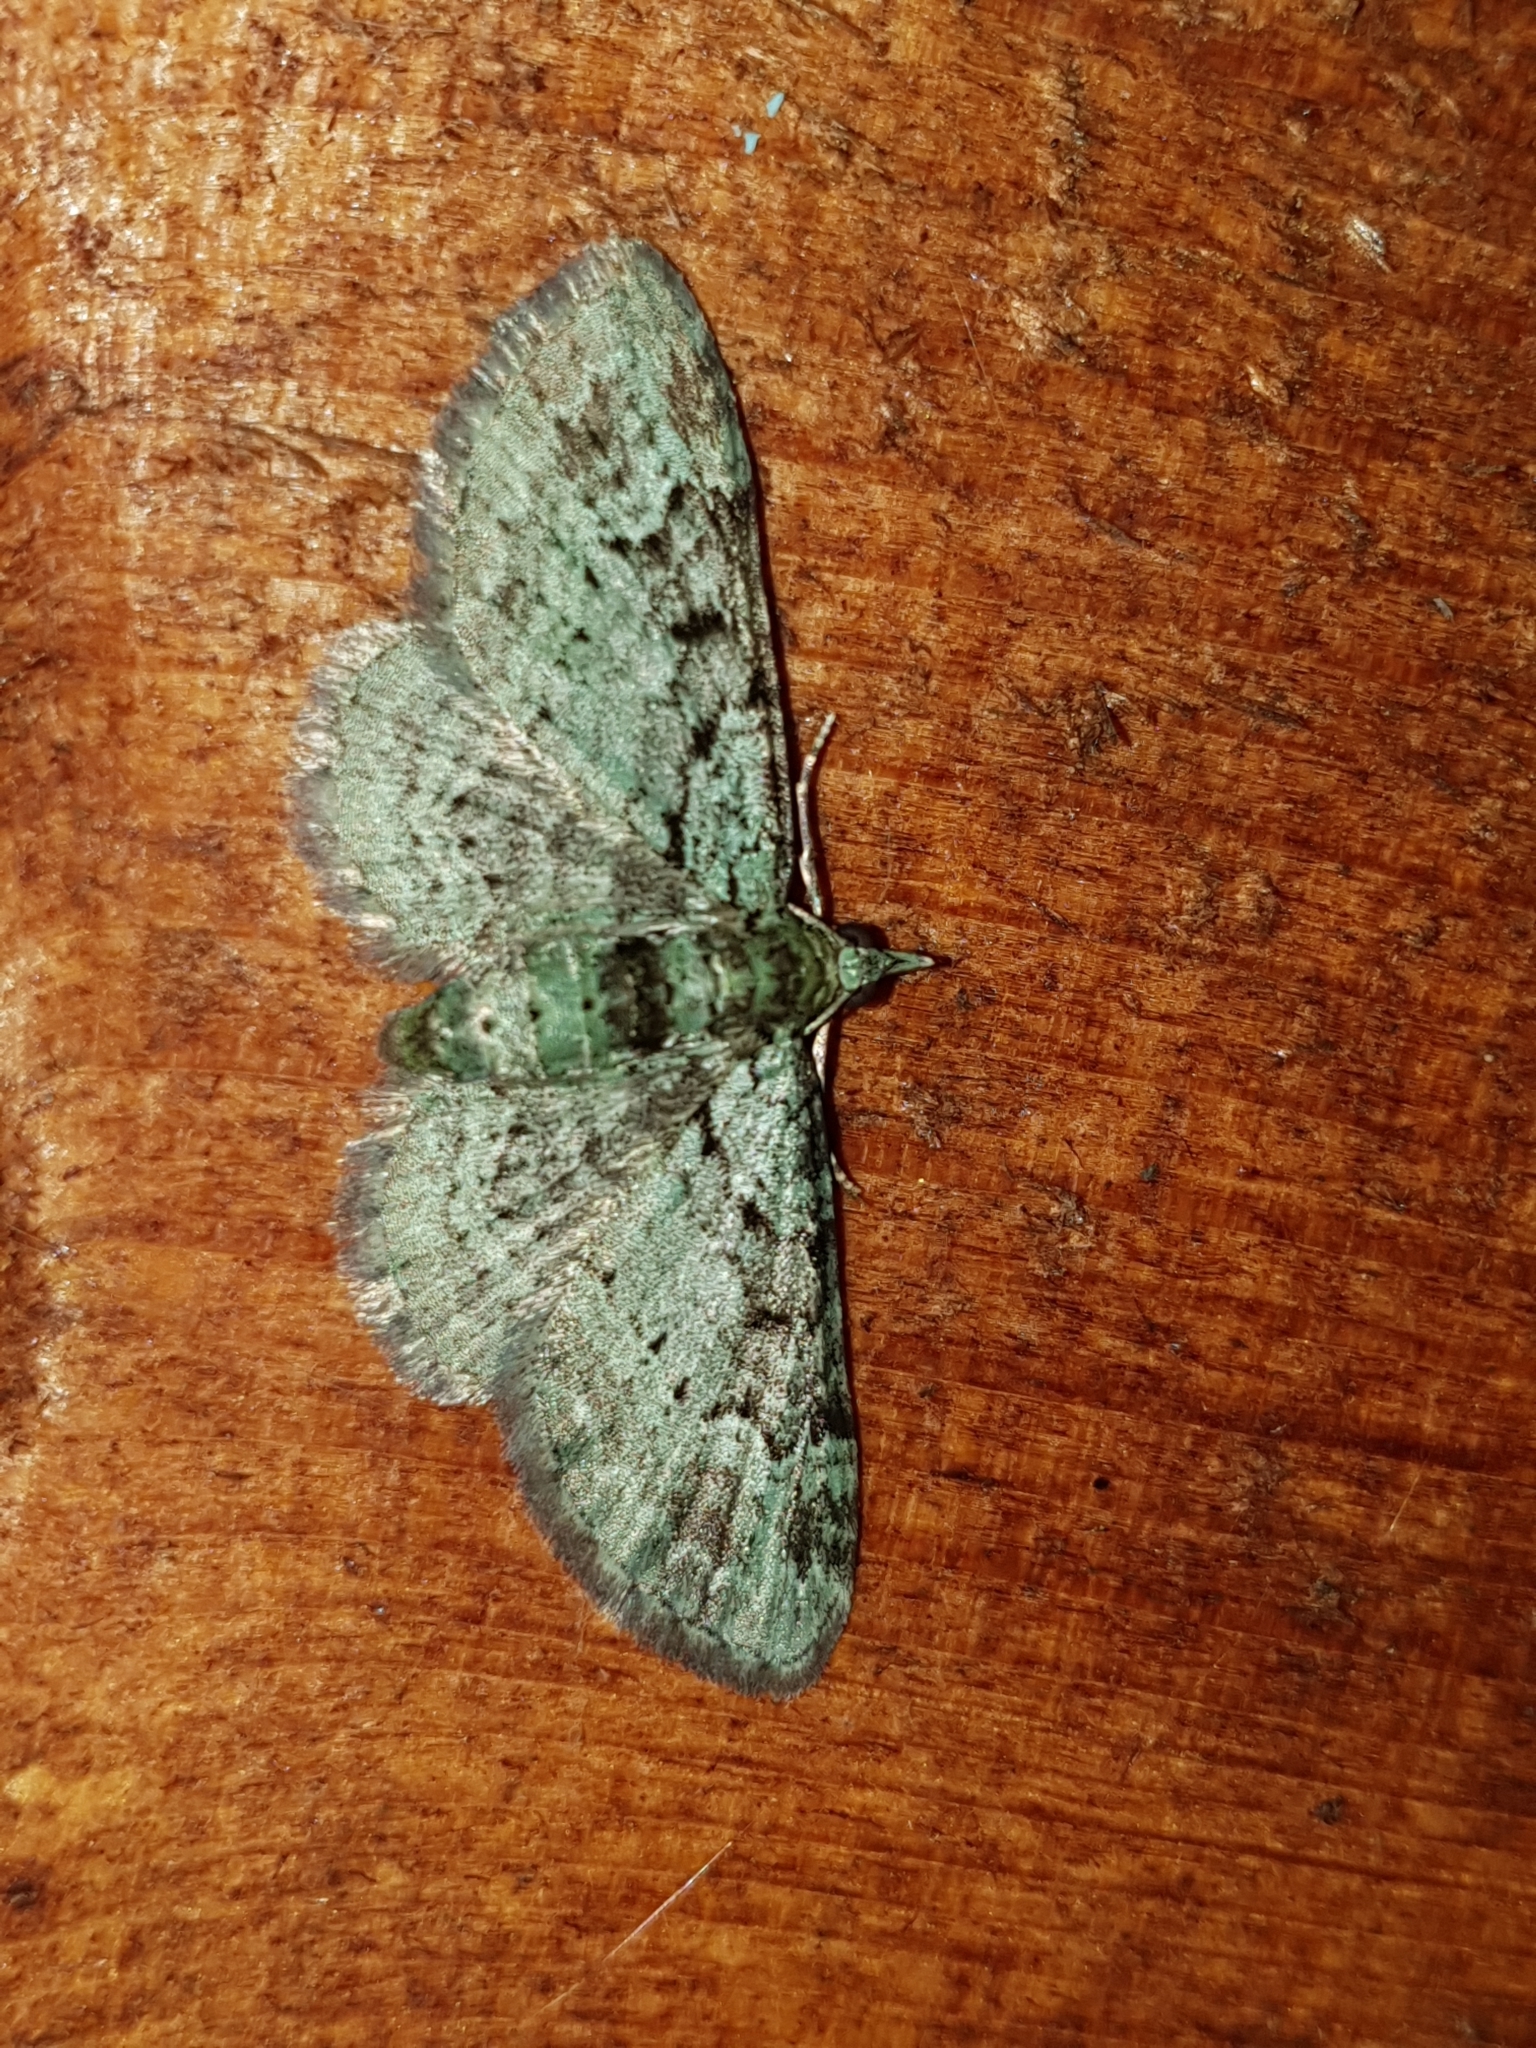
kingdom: Animalia
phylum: Arthropoda
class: Insecta
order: Lepidoptera
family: Geometridae
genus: Pasiphila
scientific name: Pasiphila rectangulata
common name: Green pug
